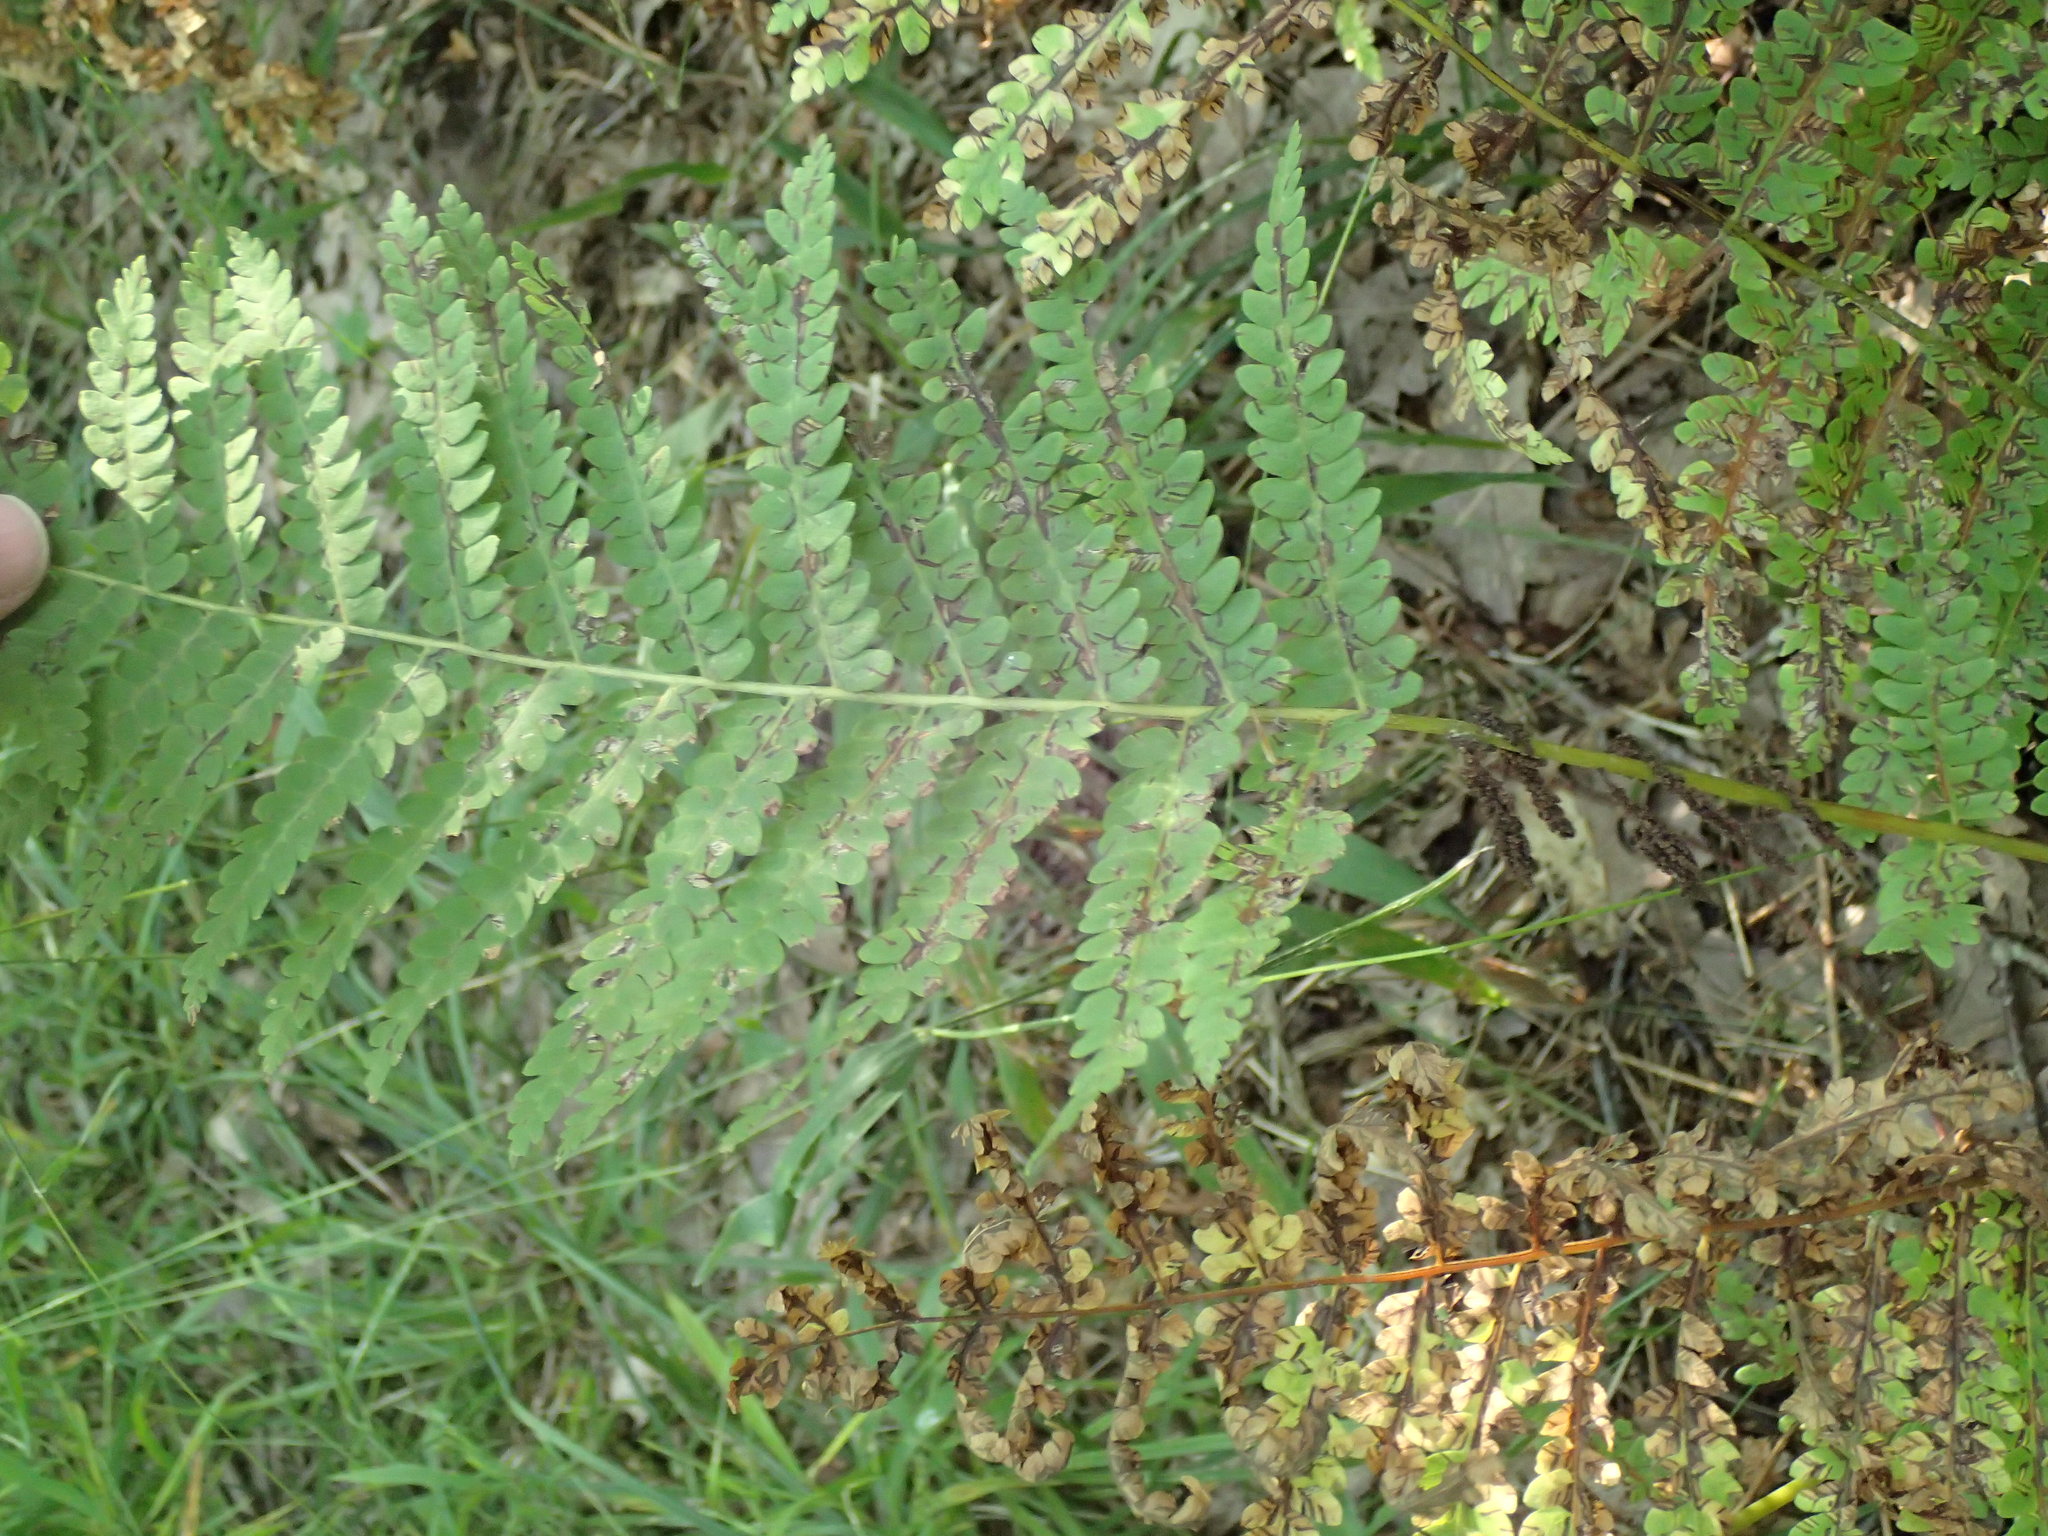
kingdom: Plantae
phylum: Tracheophyta
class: Polypodiopsida
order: Osmundales
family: Osmundaceae
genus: Claytosmunda
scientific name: Claytosmunda claytoniana
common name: Clayton's fern
